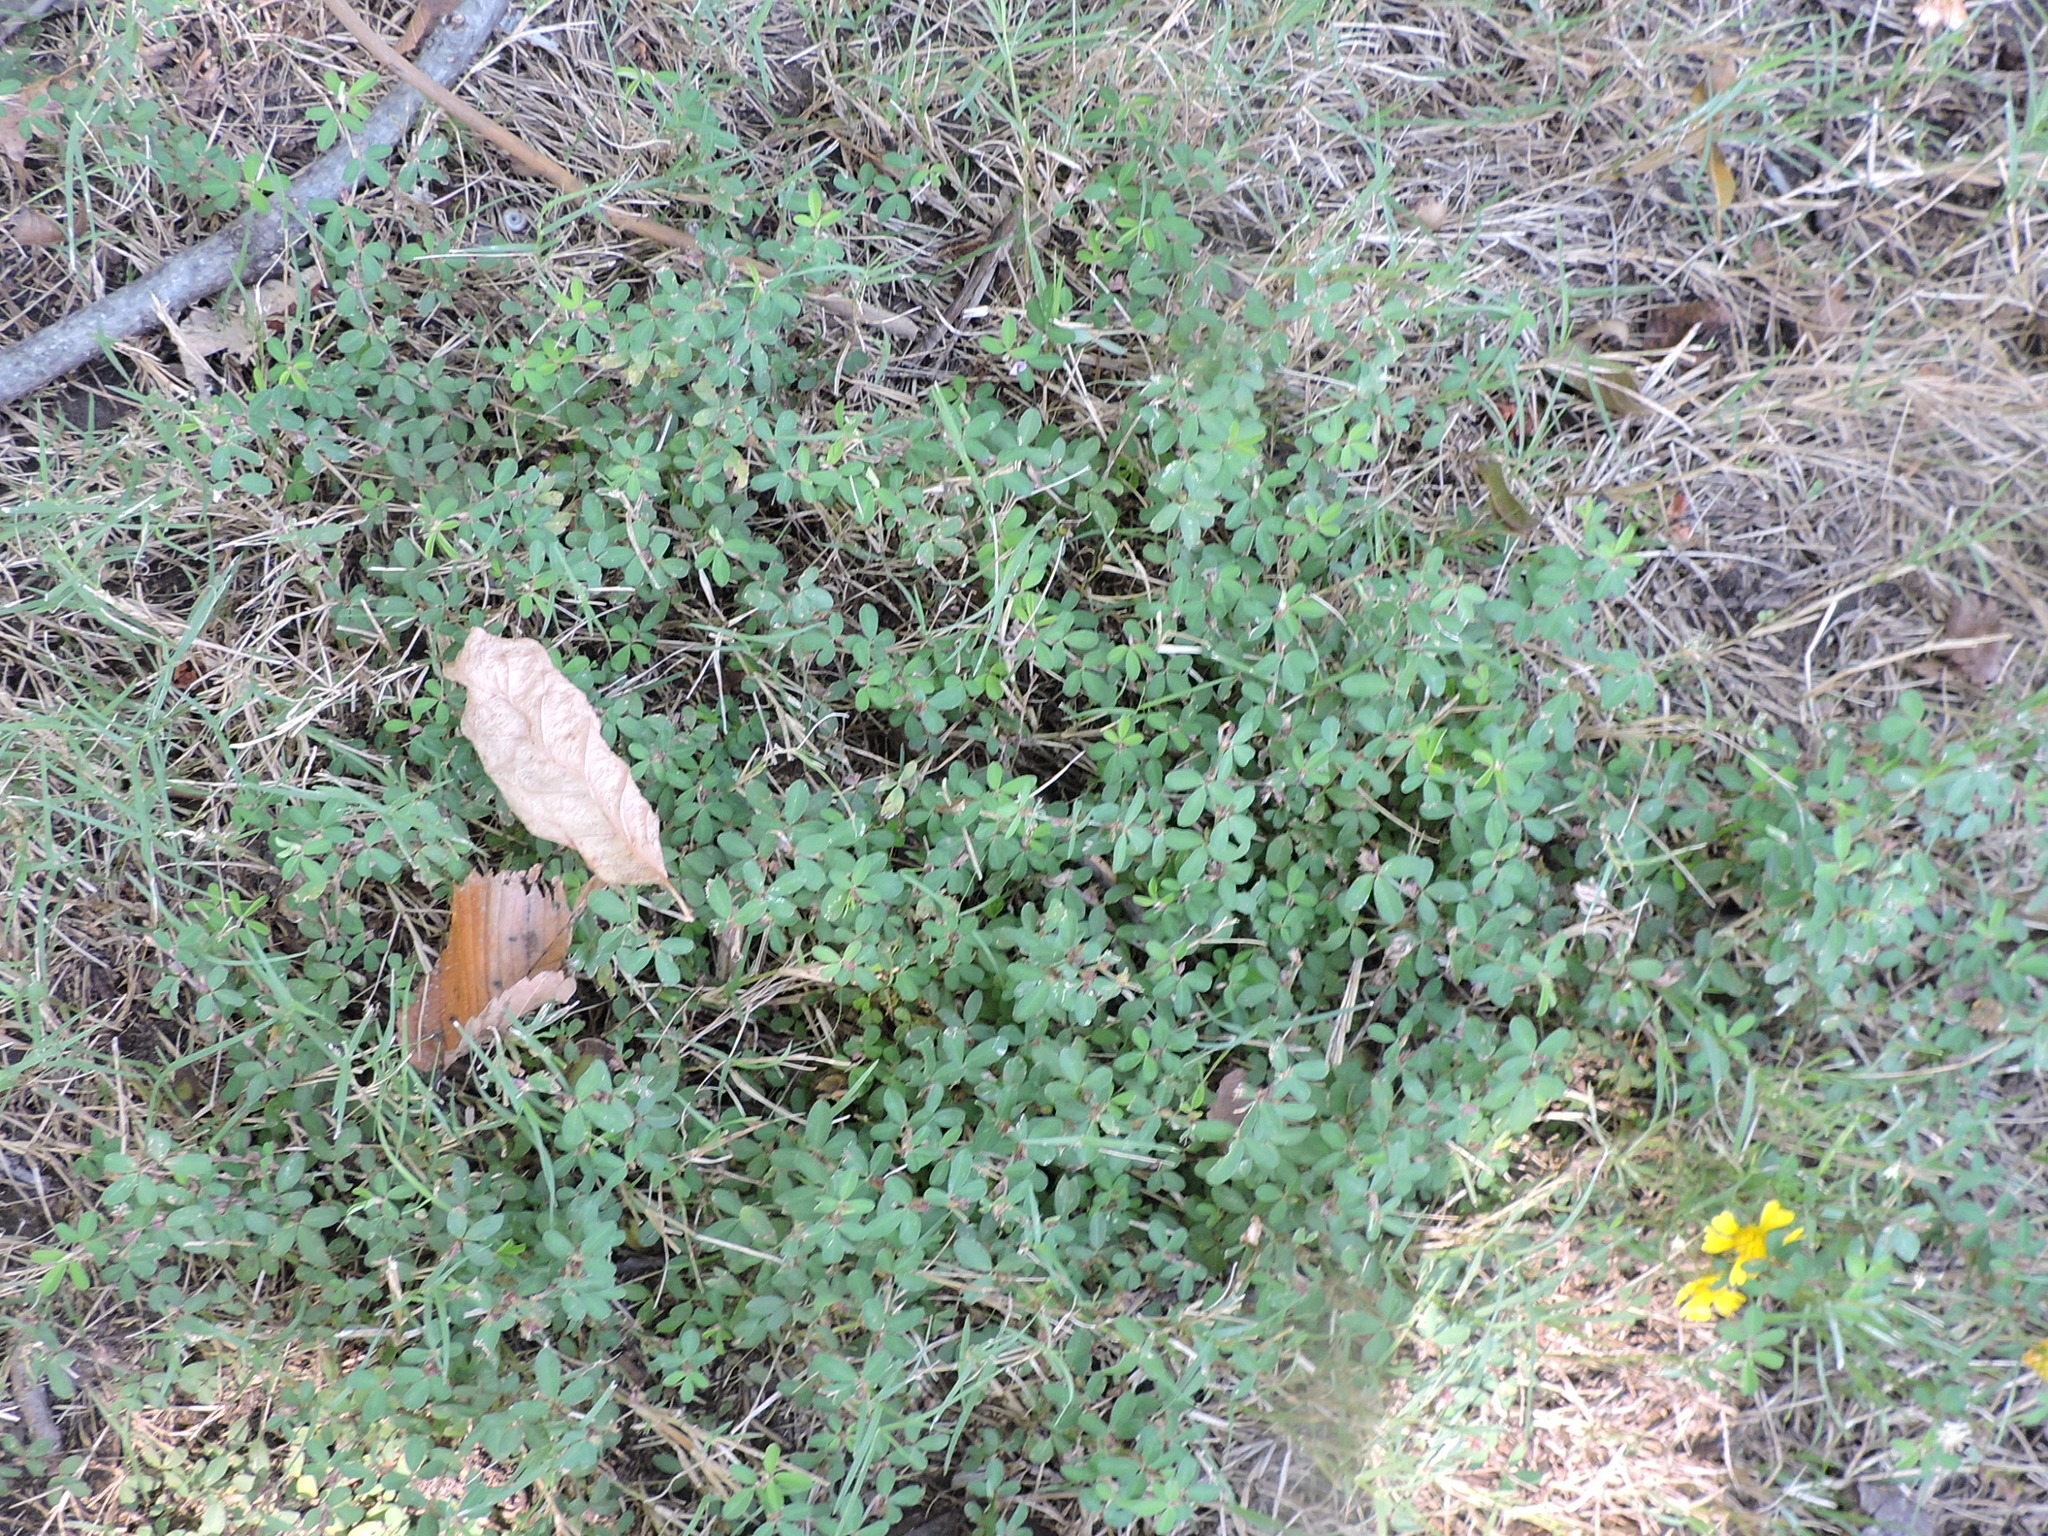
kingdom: Plantae
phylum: Tracheophyta
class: Magnoliopsida
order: Fabales
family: Fabaceae
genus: Kummerowia
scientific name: Kummerowia striata
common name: Japanese clover
